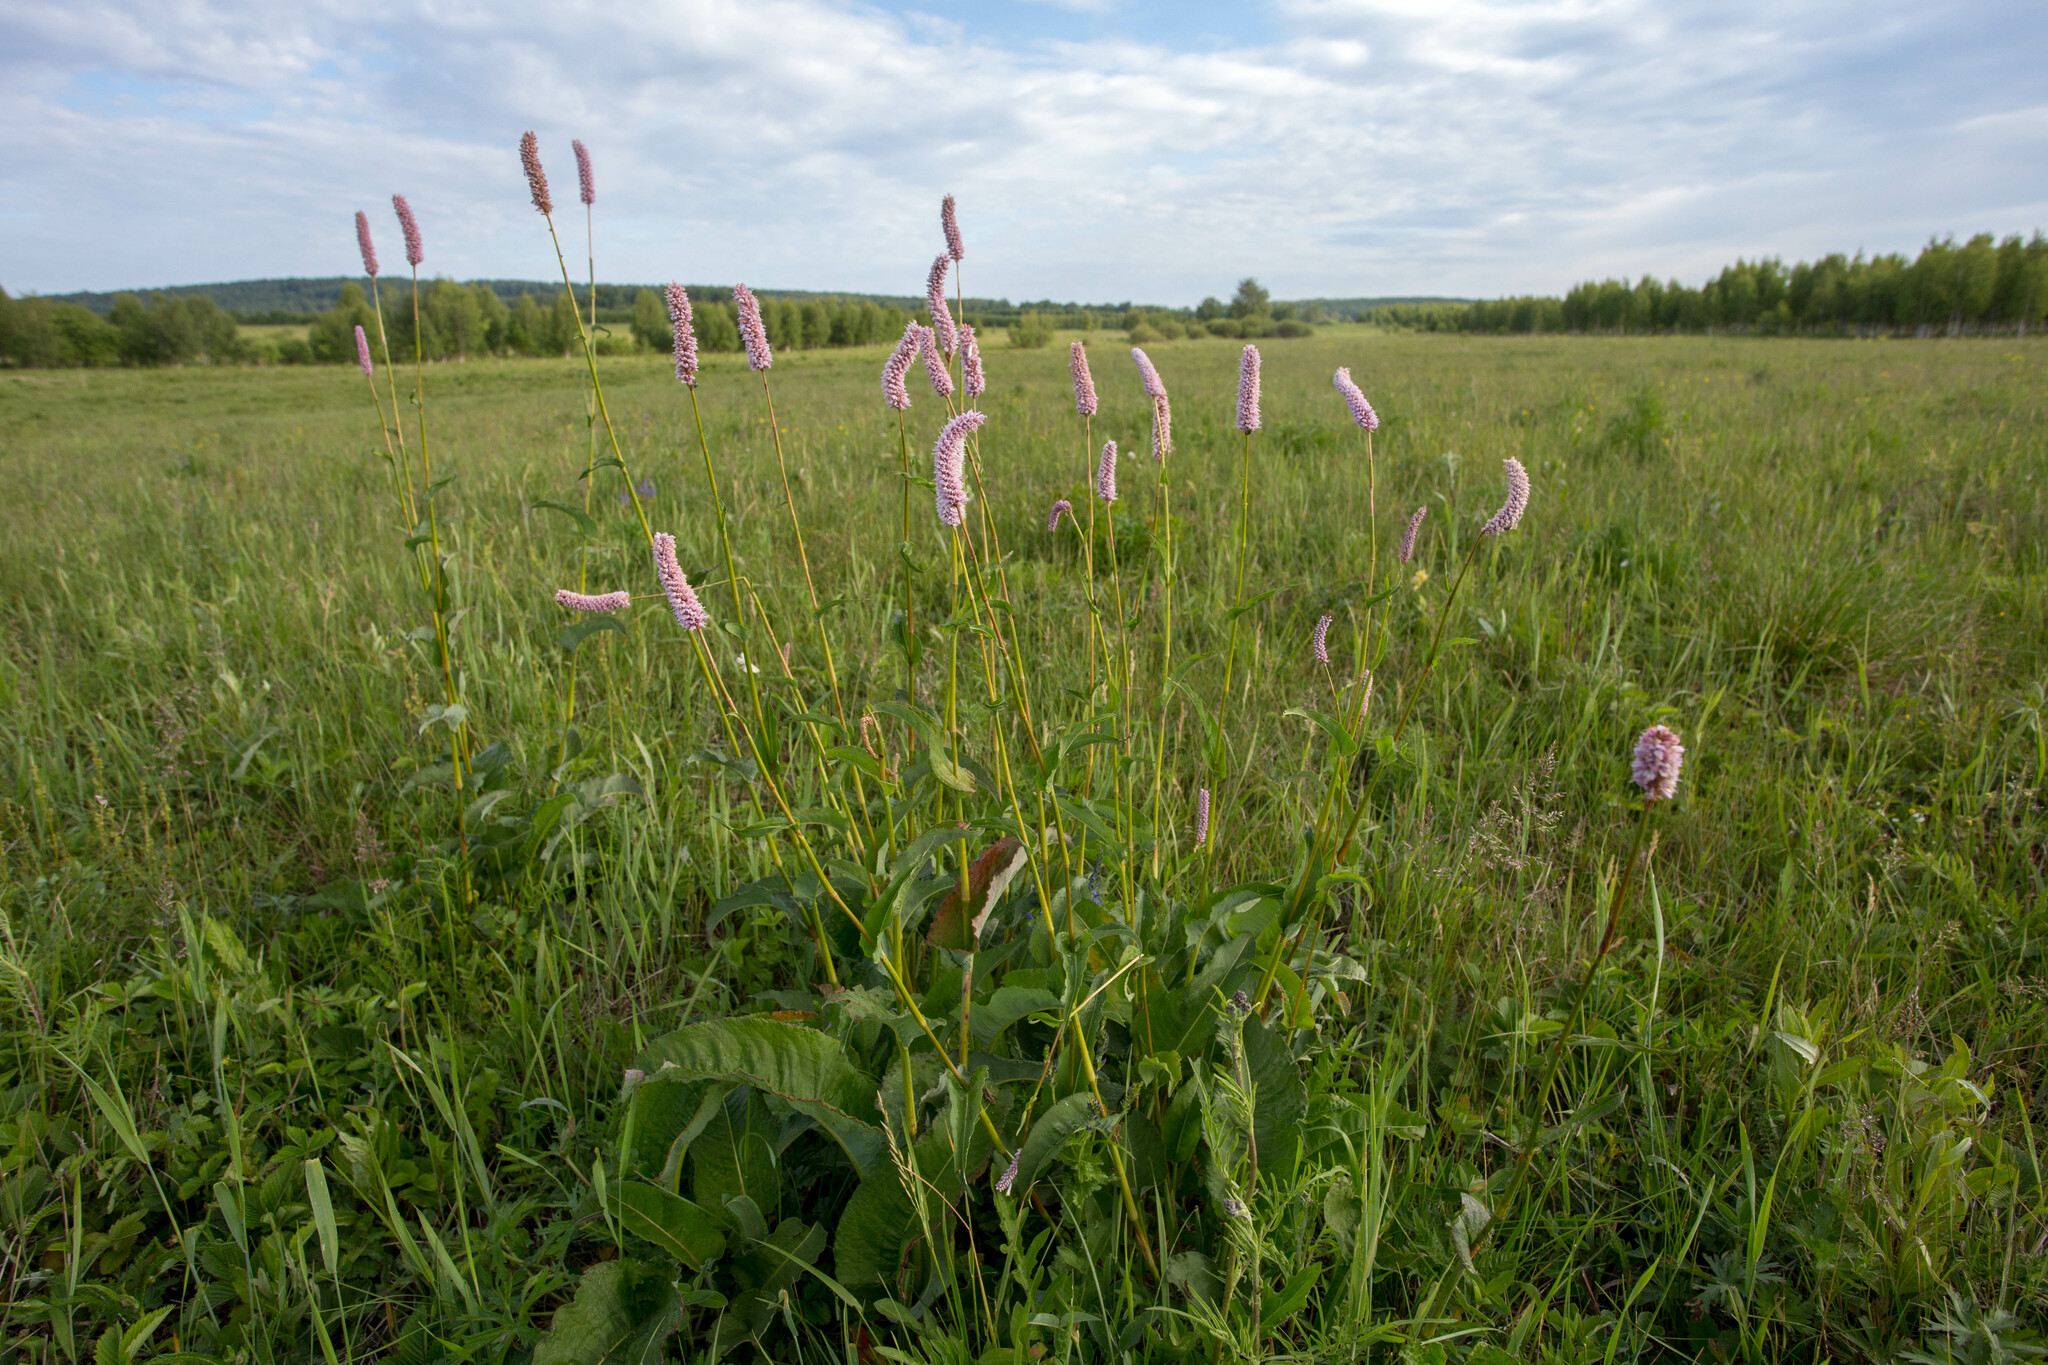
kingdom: Plantae
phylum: Tracheophyta
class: Magnoliopsida
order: Caryophyllales
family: Polygonaceae
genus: Bistorta
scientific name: Bistorta officinalis
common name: Common bistort
